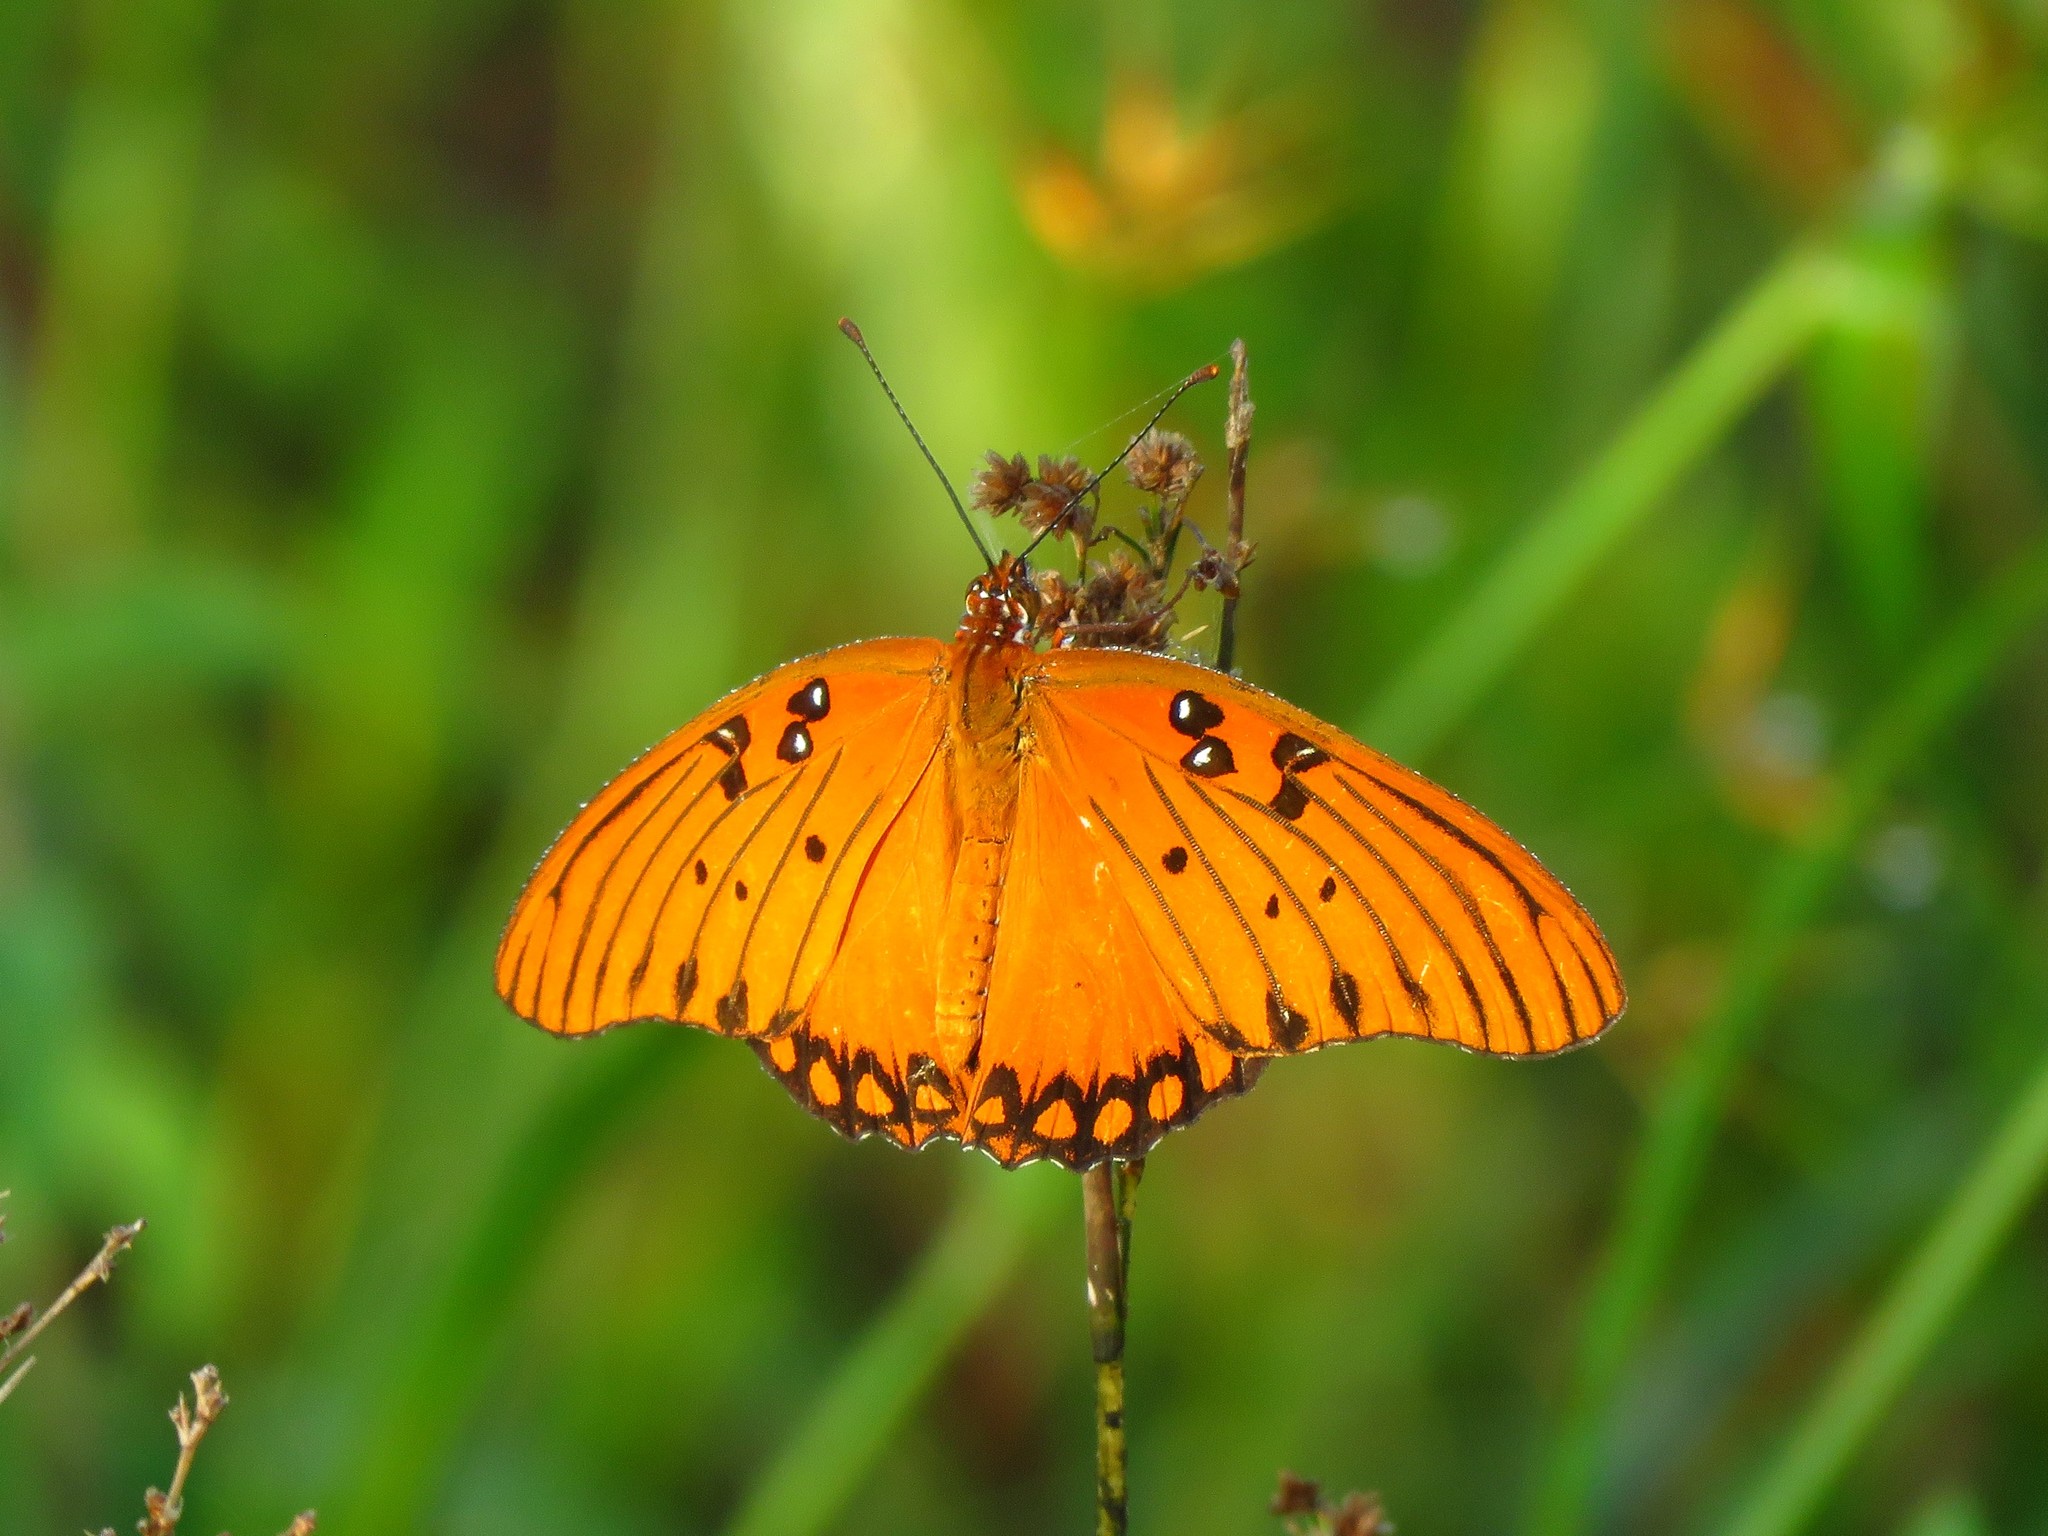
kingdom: Animalia
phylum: Arthropoda
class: Insecta
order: Lepidoptera
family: Nymphalidae
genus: Dione
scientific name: Dione vanillae
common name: Gulf fritillary
